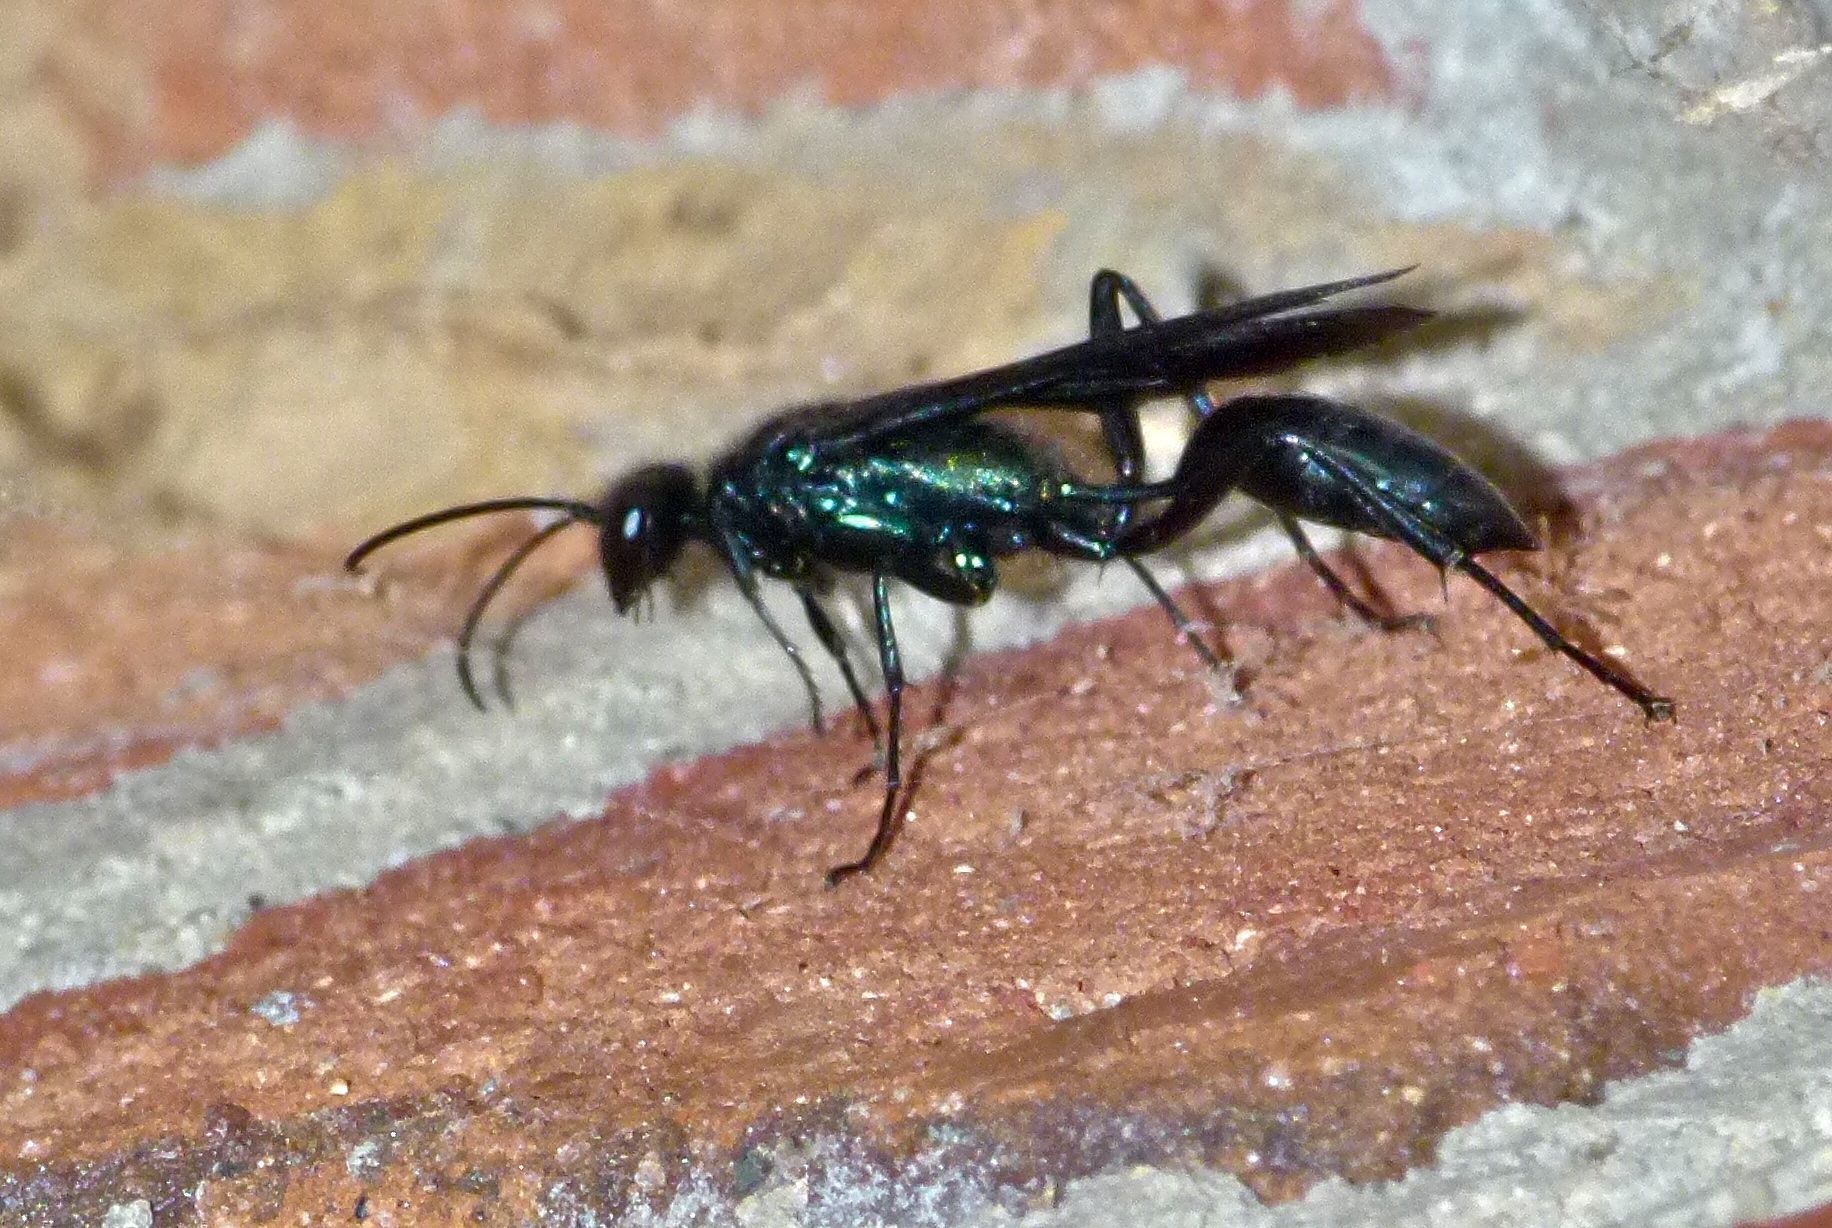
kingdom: Animalia
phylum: Arthropoda
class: Insecta
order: Hymenoptera
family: Sphecidae
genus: Chalybion
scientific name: Chalybion californicum
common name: Mud dauber
